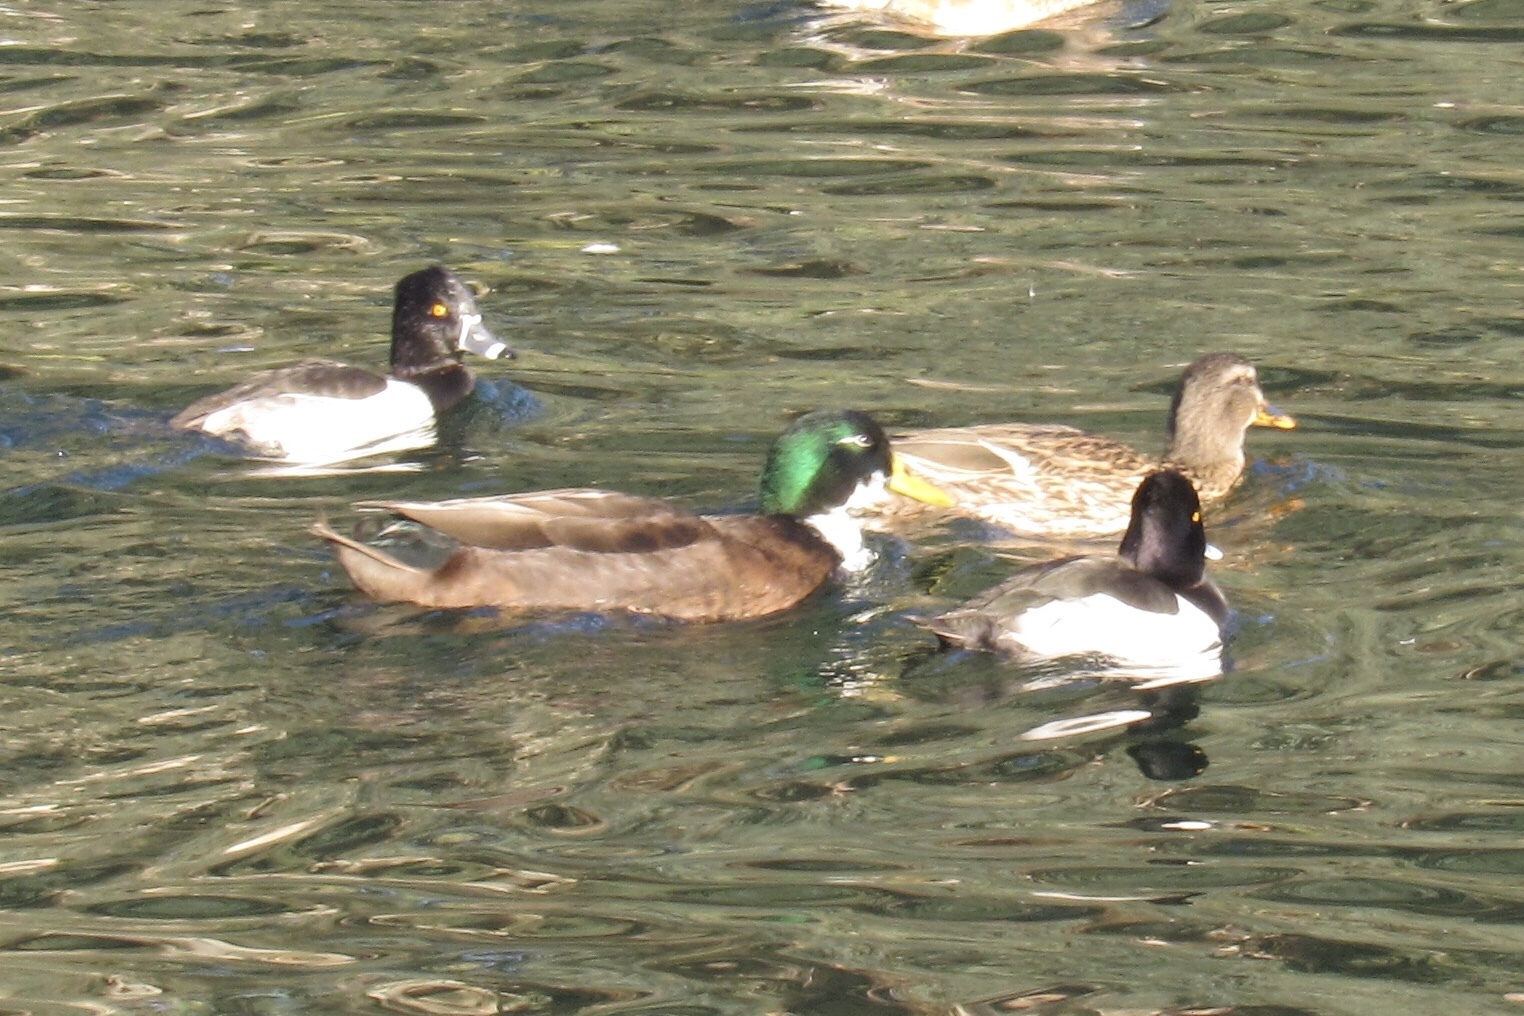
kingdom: Animalia
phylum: Chordata
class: Aves
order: Anseriformes
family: Anatidae
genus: Anas
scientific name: Anas platyrhynchos
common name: Mallard
